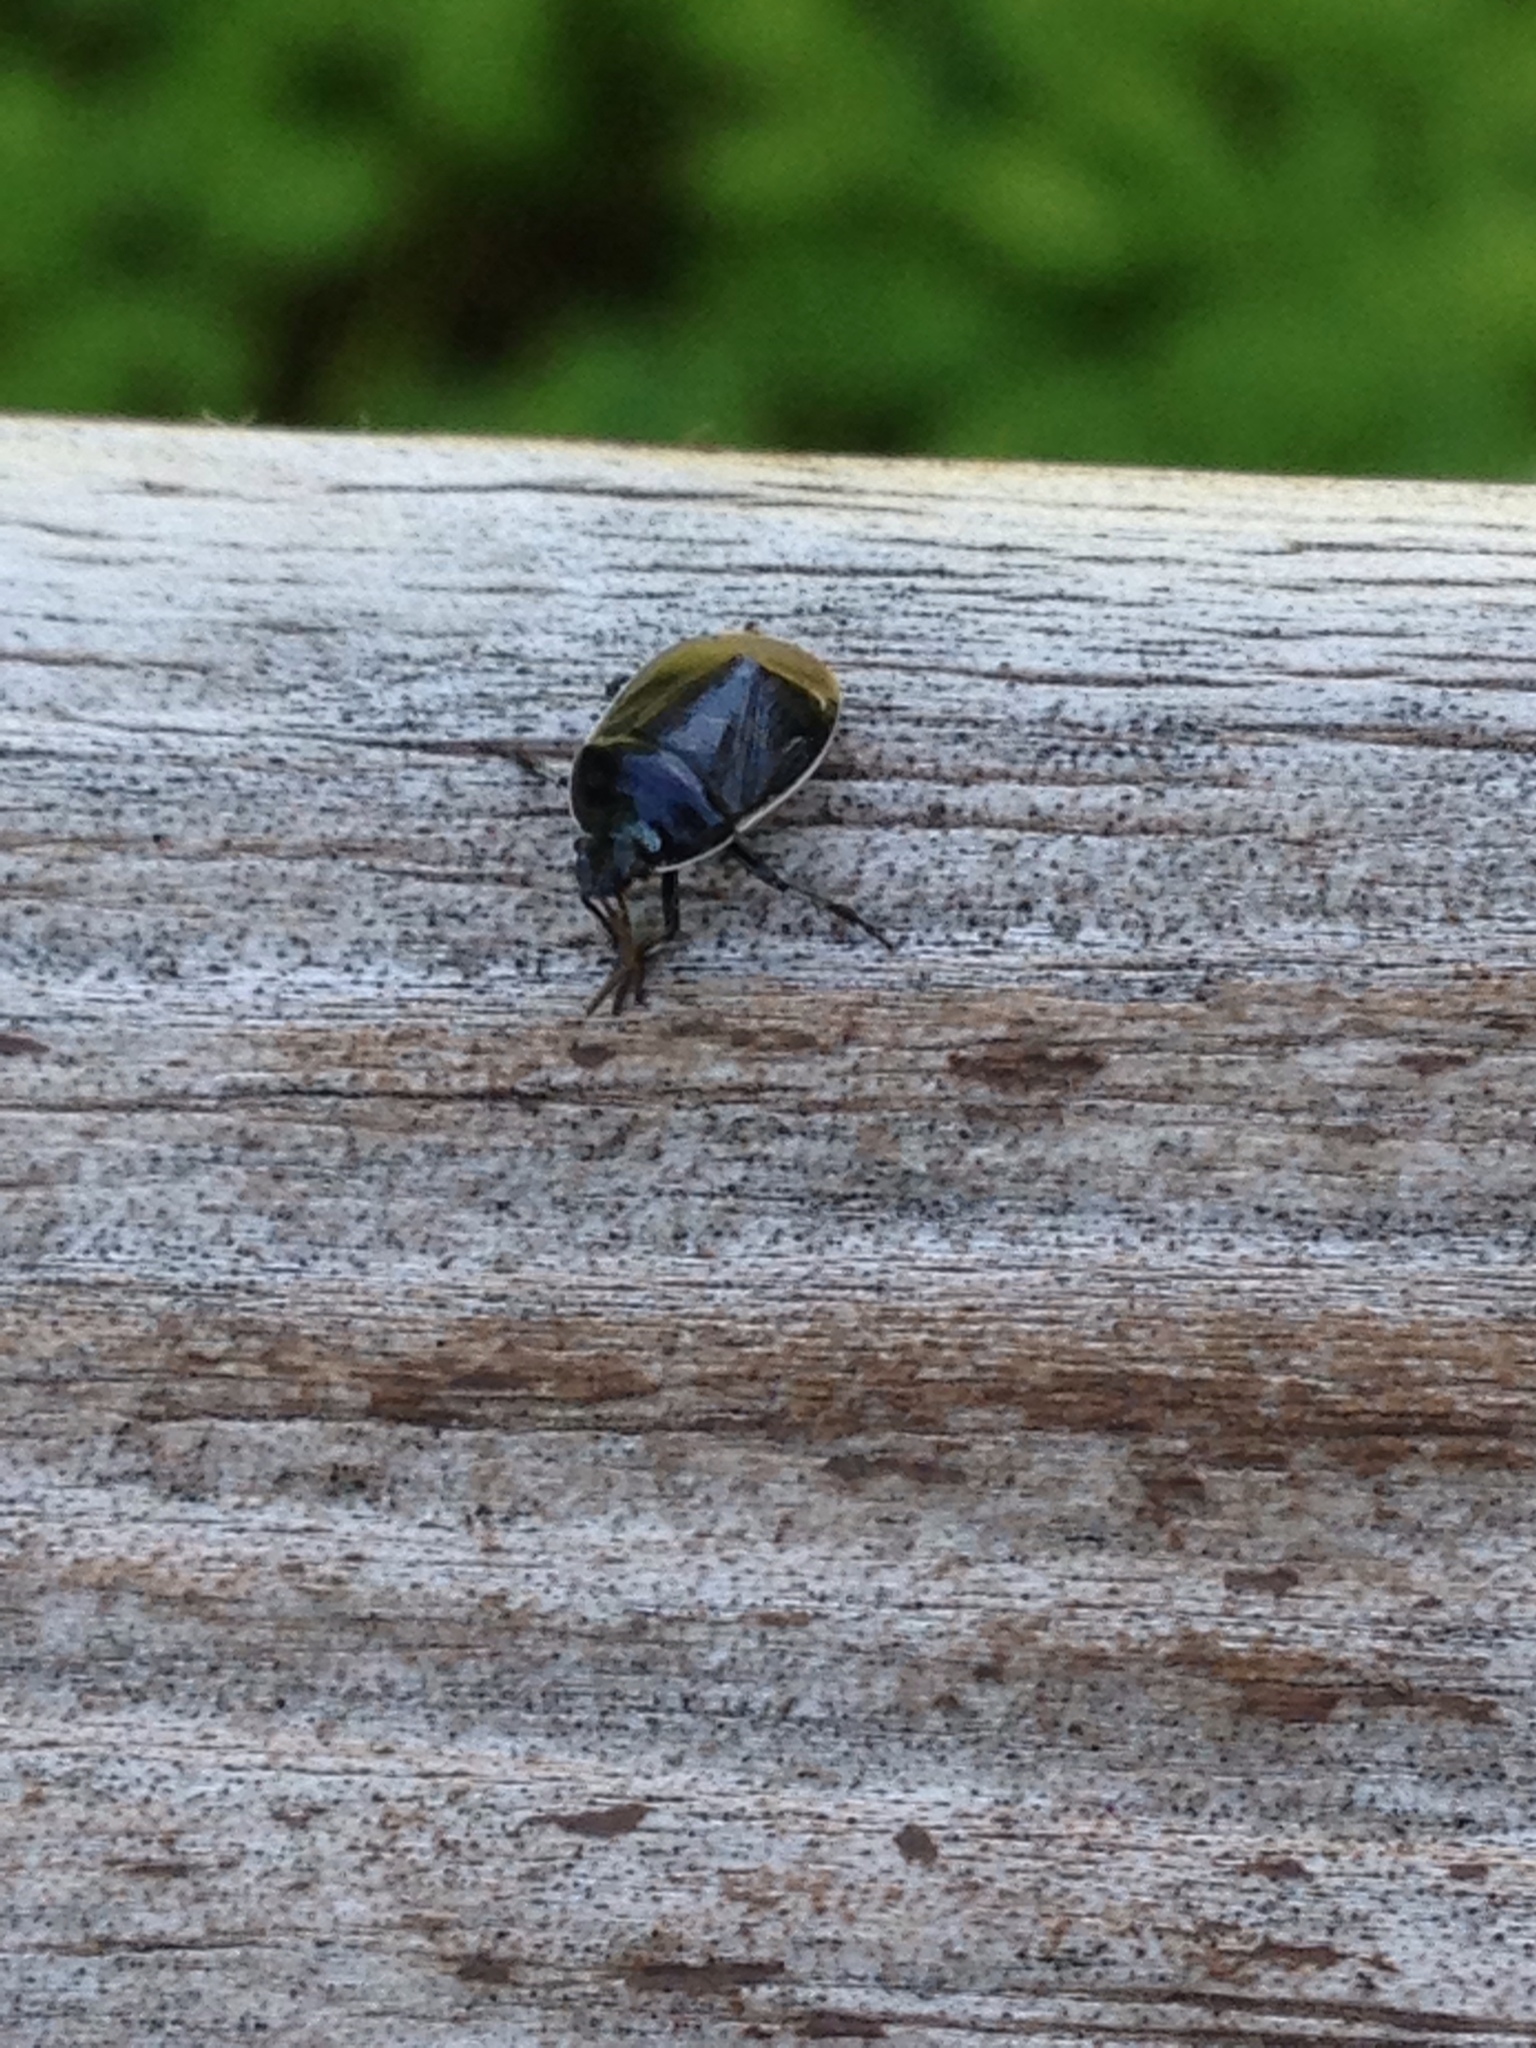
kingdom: Animalia
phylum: Arthropoda
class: Insecta
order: Hemiptera
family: Cydnidae
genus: Sehirus
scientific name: Sehirus cinctus
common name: White-margined burrower bug
